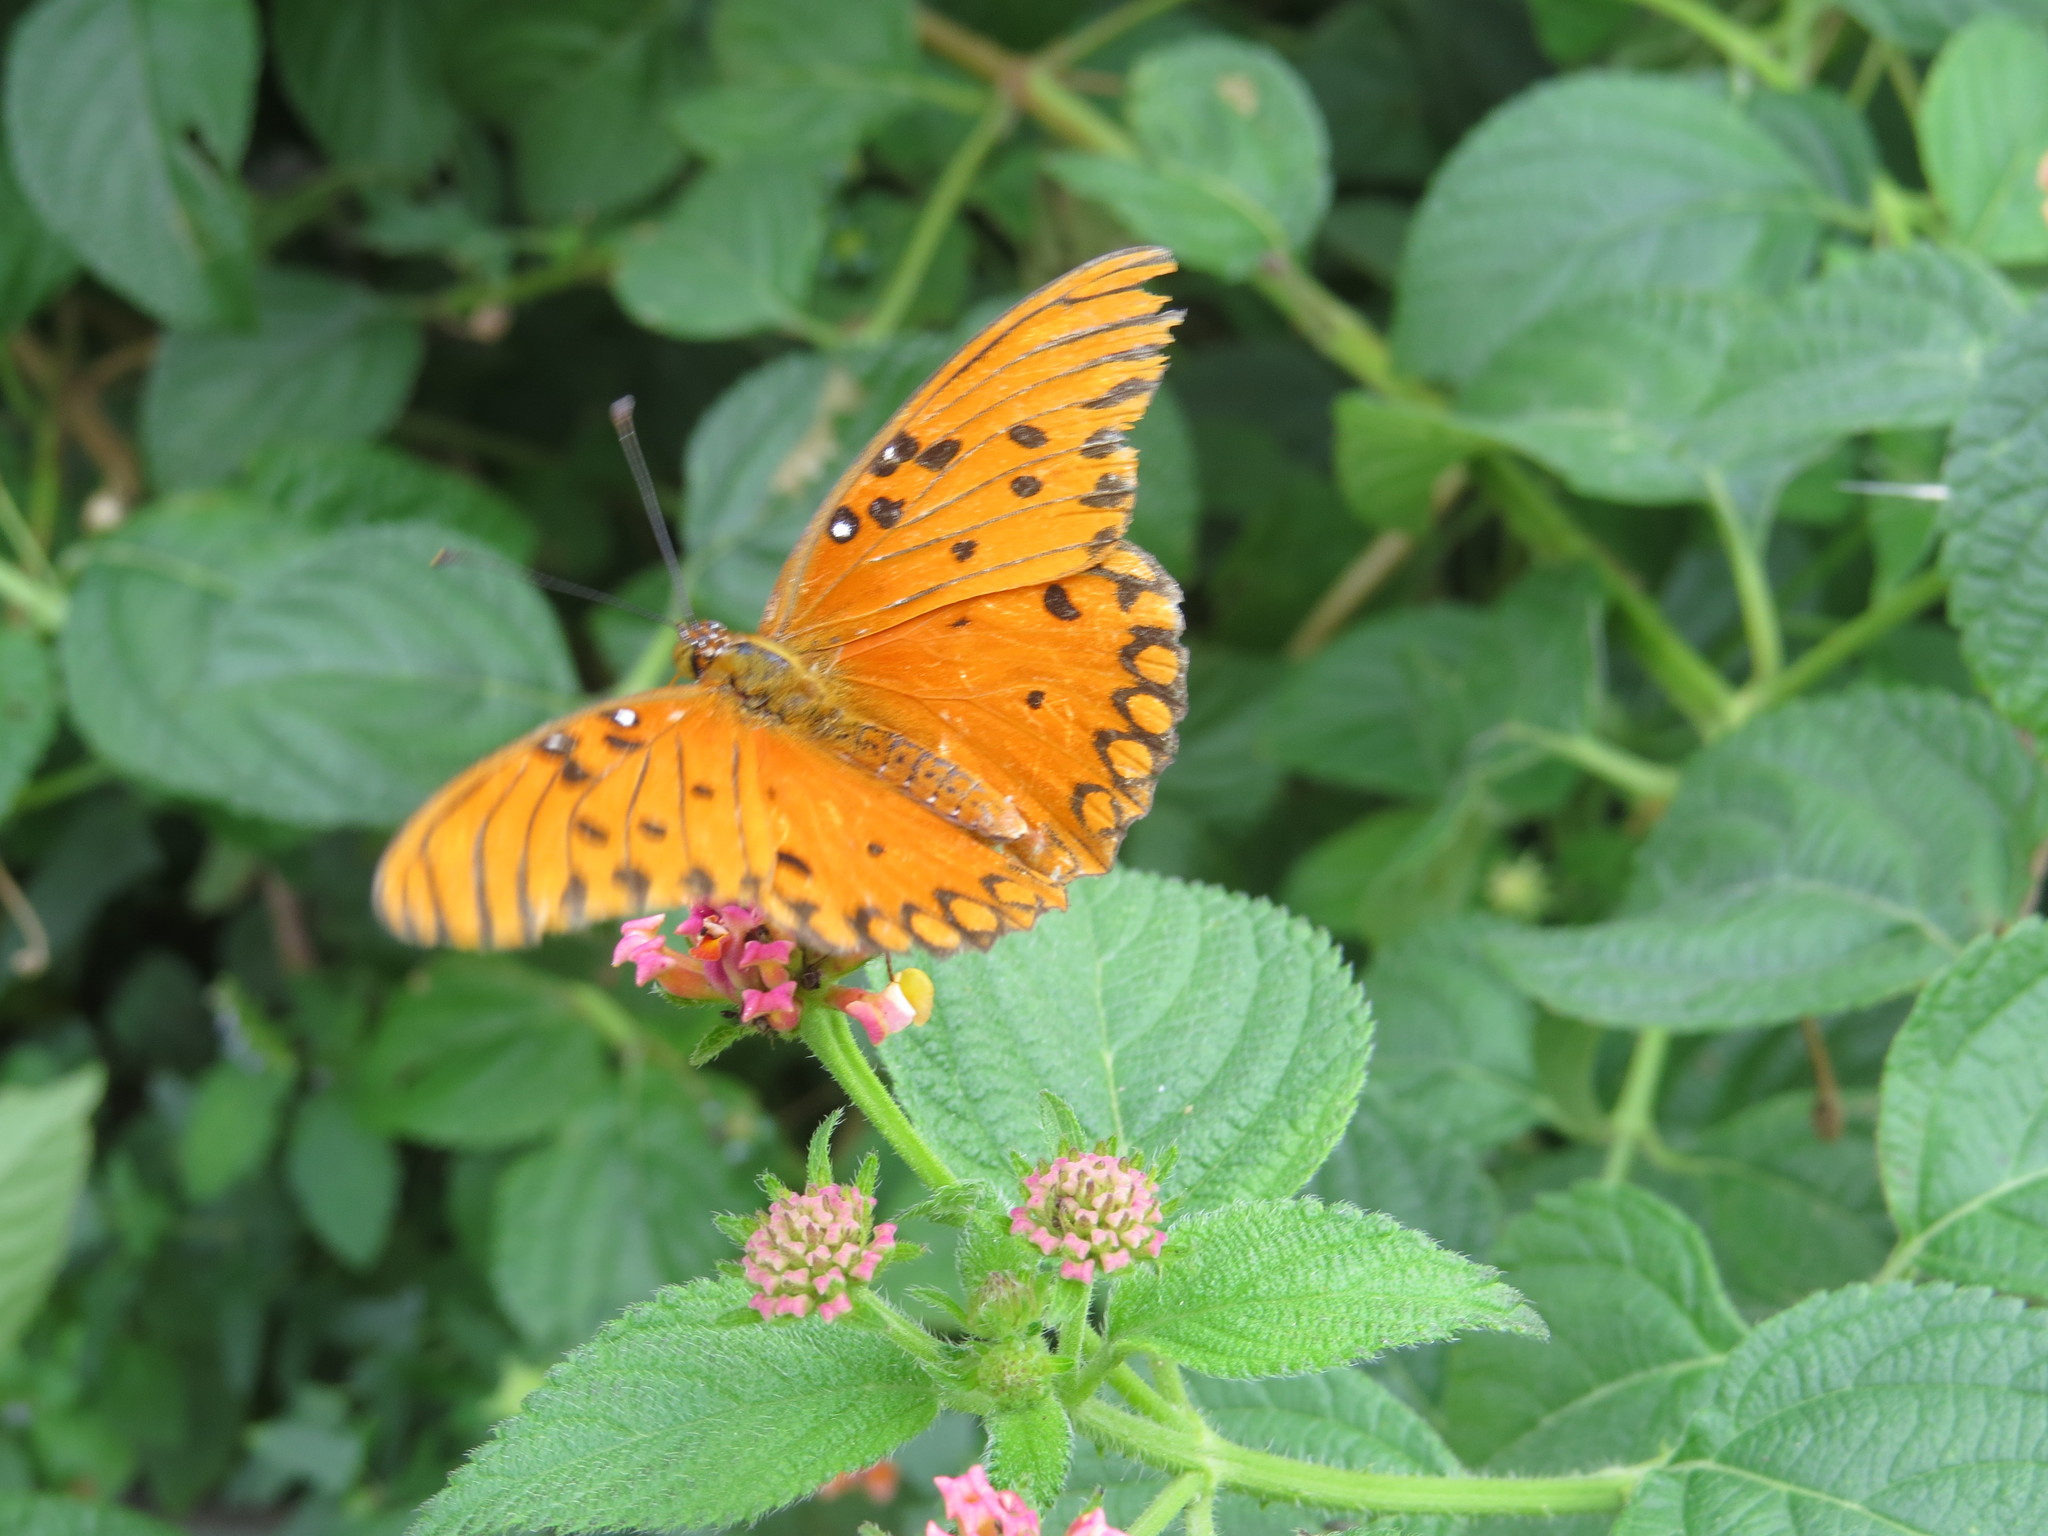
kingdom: Animalia
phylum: Arthropoda
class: Insecta
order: Lepidoptera
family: Nymphalidae
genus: Dione
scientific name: Dione vanillae
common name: Gulf fritillary
